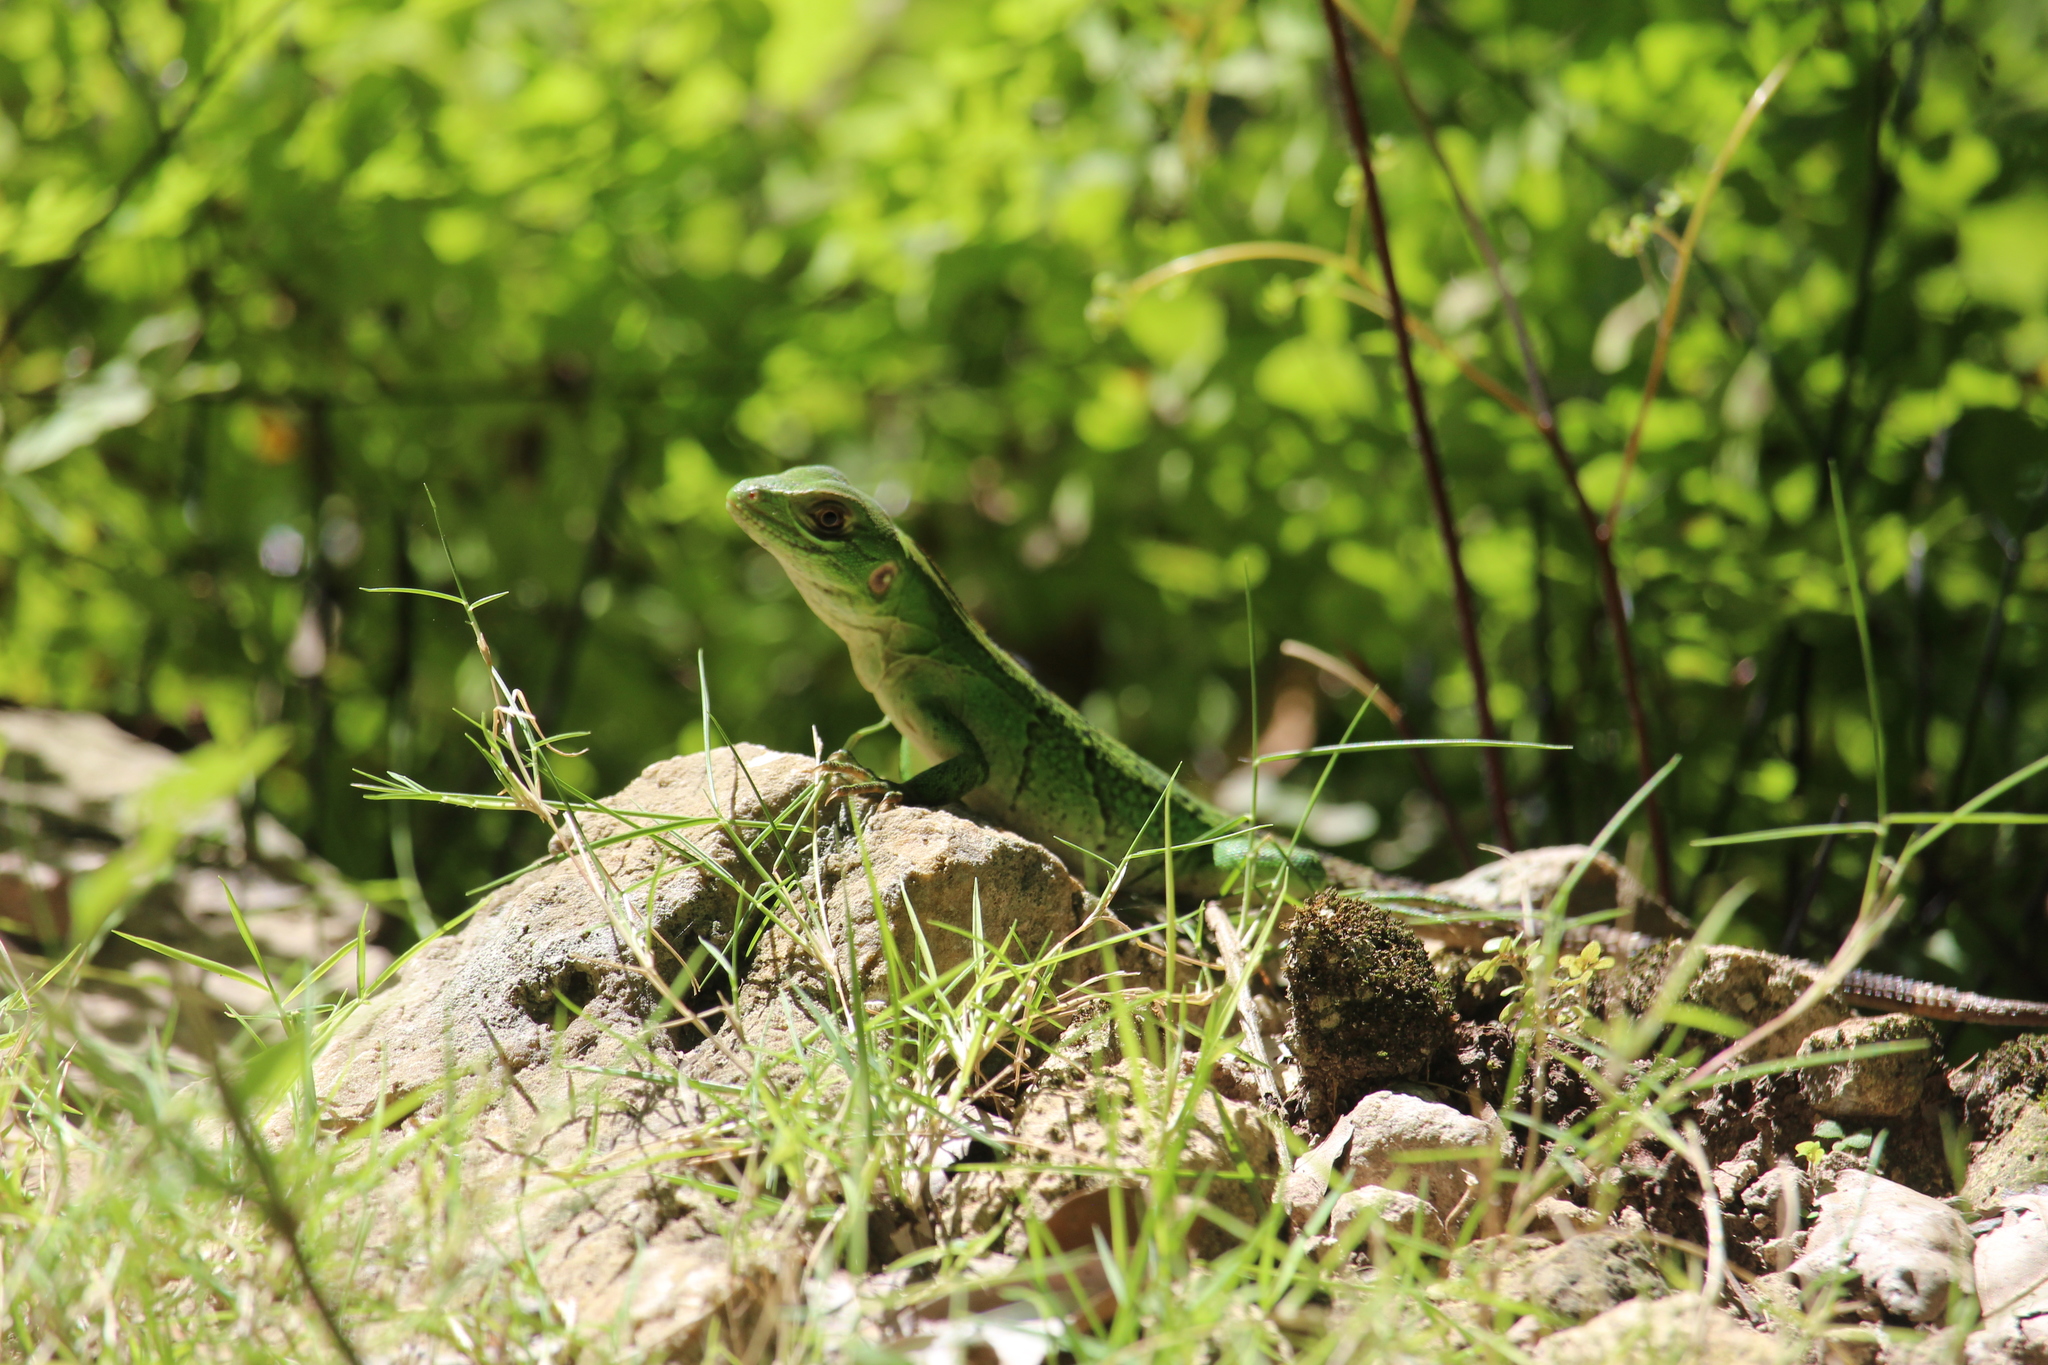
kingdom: Animalia
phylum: Chordata
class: Squamata
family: Iguanidae
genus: Ctenosaura
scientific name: Ctenosaura similis
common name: Black spiny-tailed iguana
